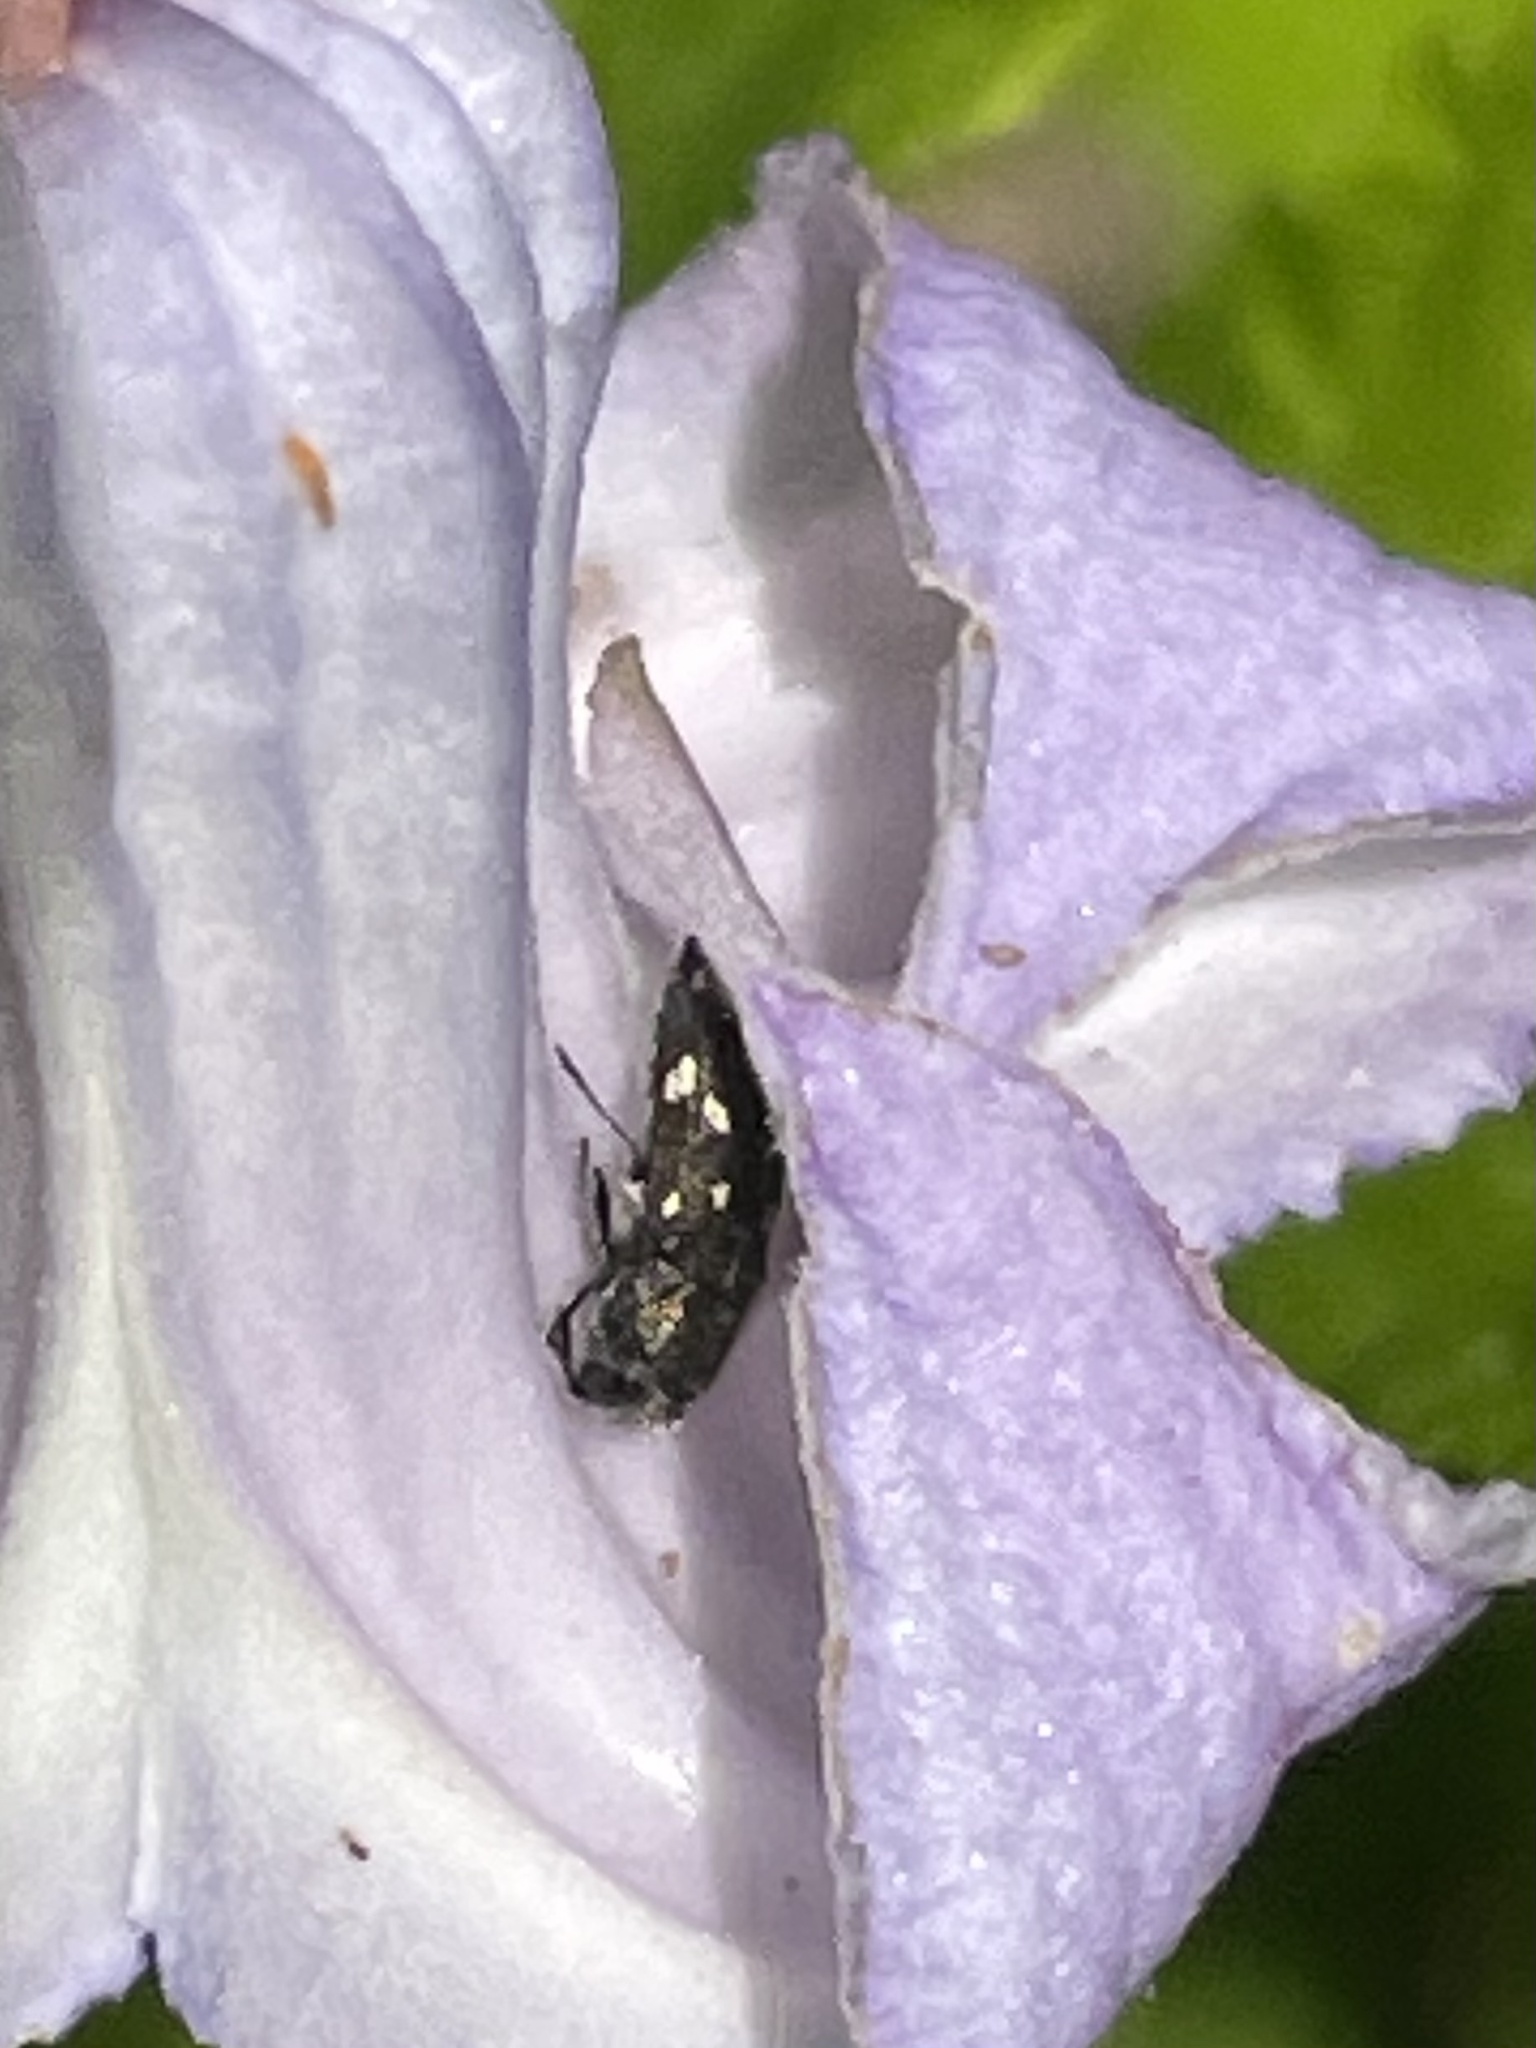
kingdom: Animalia
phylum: Arthropoda
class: Insecta
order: Coleoptera
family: Buprestidae
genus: Acmaeodera
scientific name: Acmaeodera tubulus
